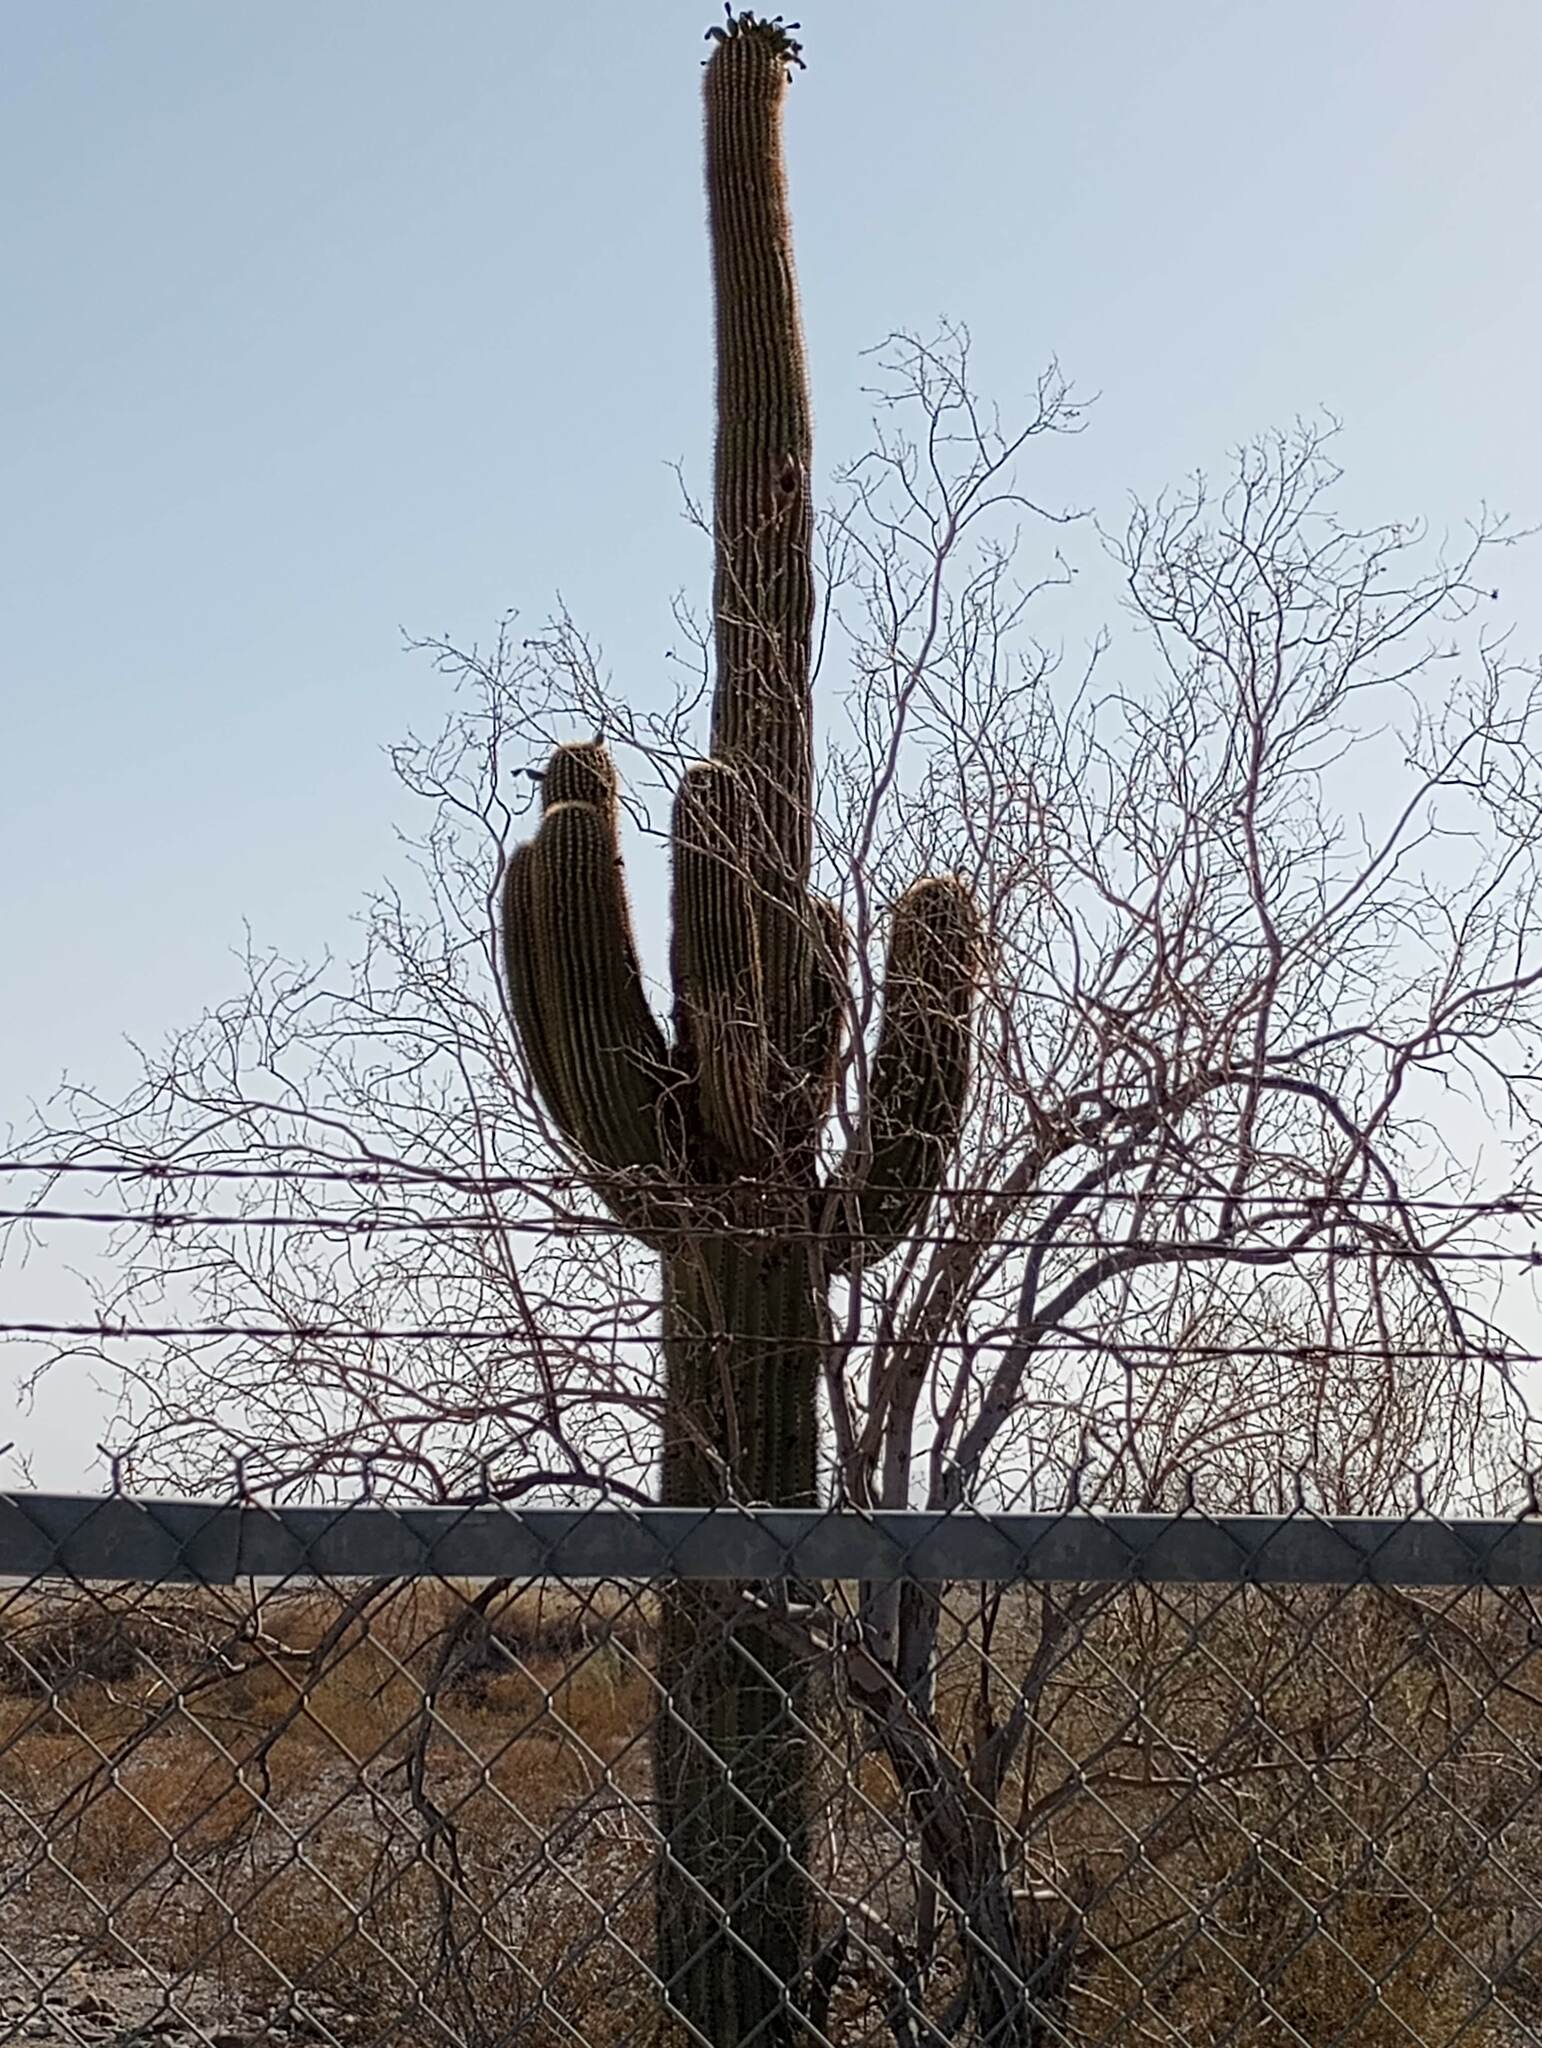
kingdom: Plantae
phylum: Tracheophyta
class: Magnoliopsida
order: Caryophyllales
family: Cactaceae
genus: Carnegiea
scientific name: Carnegiea gigantea
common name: Saguaro
